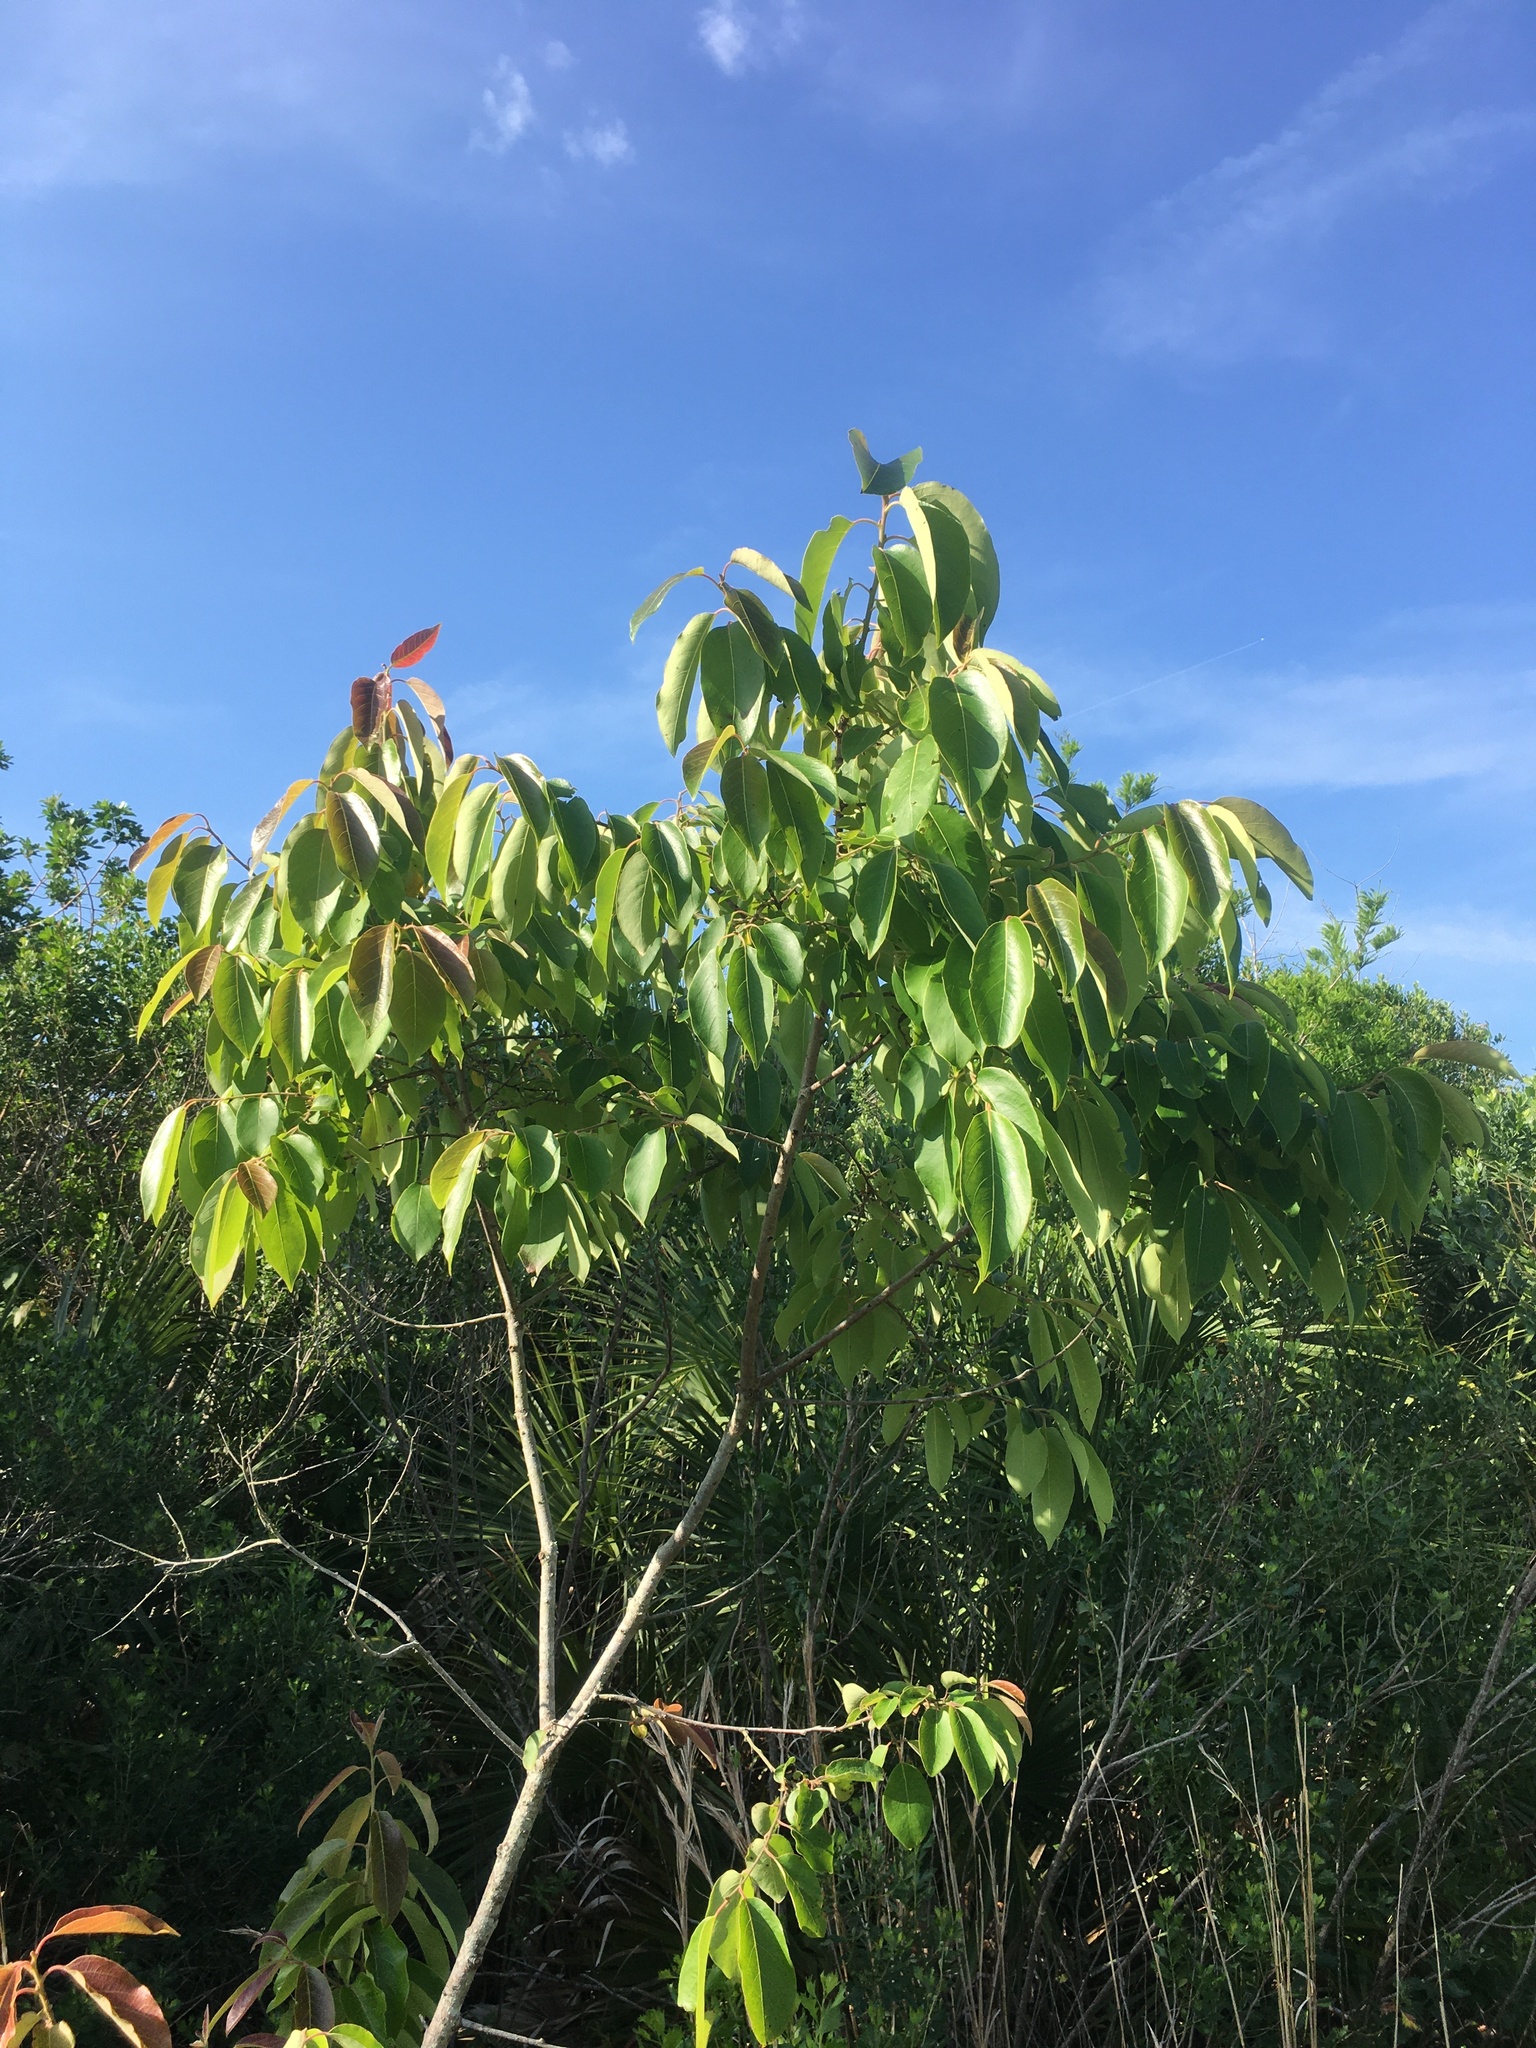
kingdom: Plantae
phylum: Tracheophyta
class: Magnoliopsida
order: Ericales
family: Ebenaceae
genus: Diospyros
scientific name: Diospyros virginiana
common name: Persimmon
